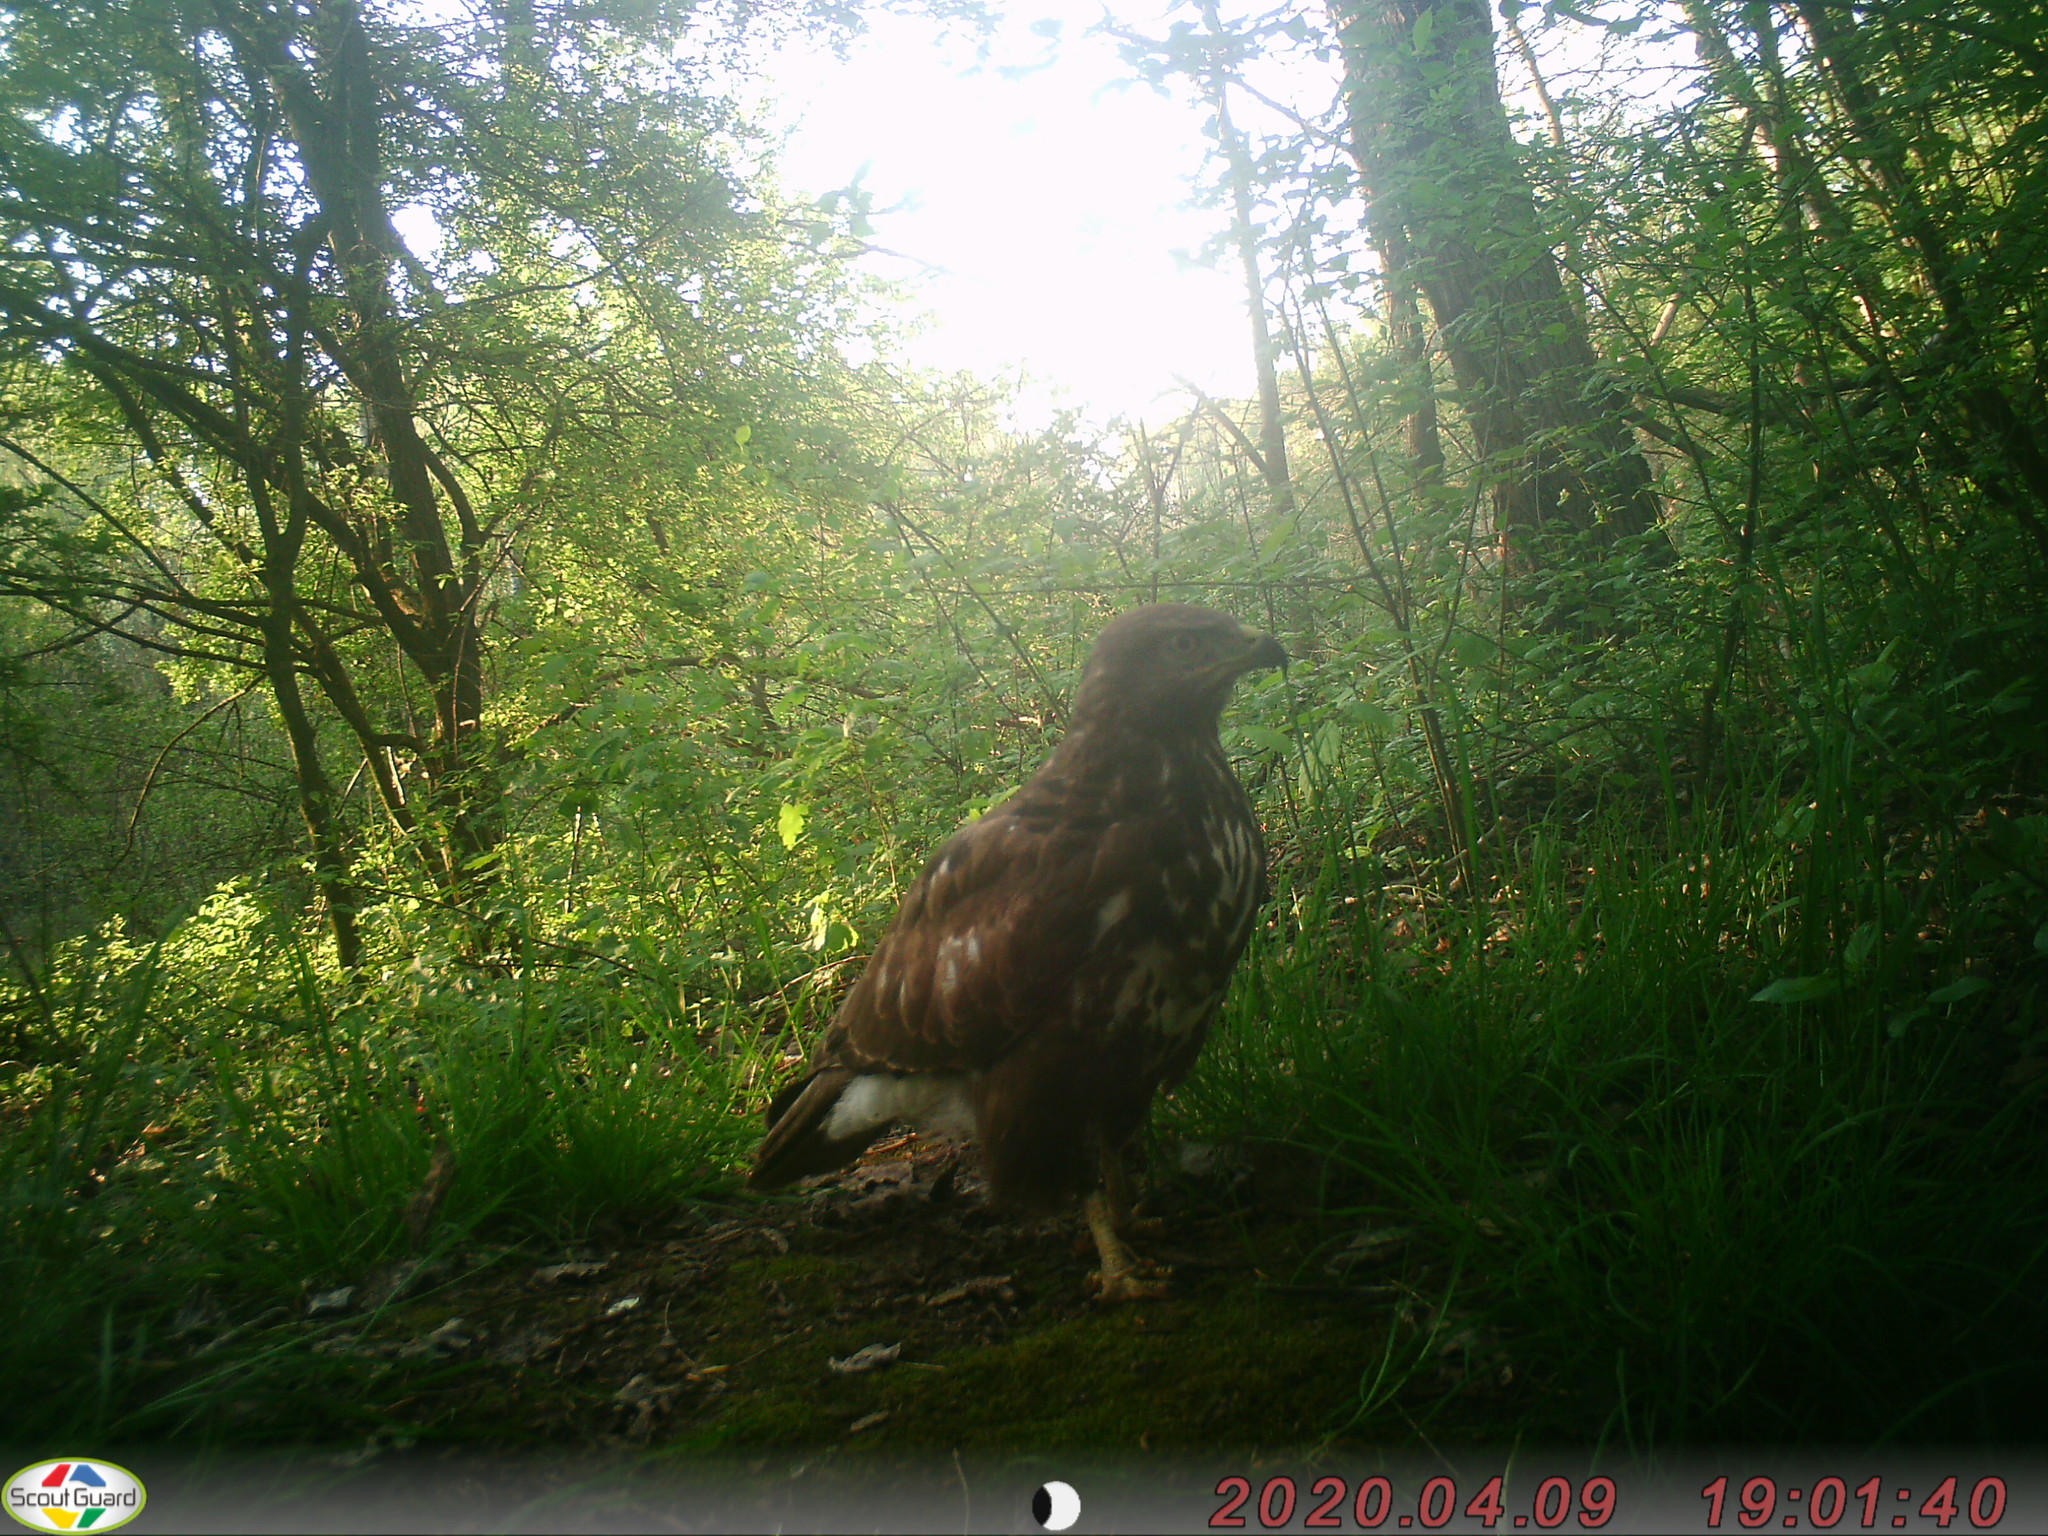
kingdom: Animalia
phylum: Chordata
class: Aves
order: Accipitriformes
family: Accipitridae
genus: Buteo
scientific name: Buteo buteo
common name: Common buzzard
